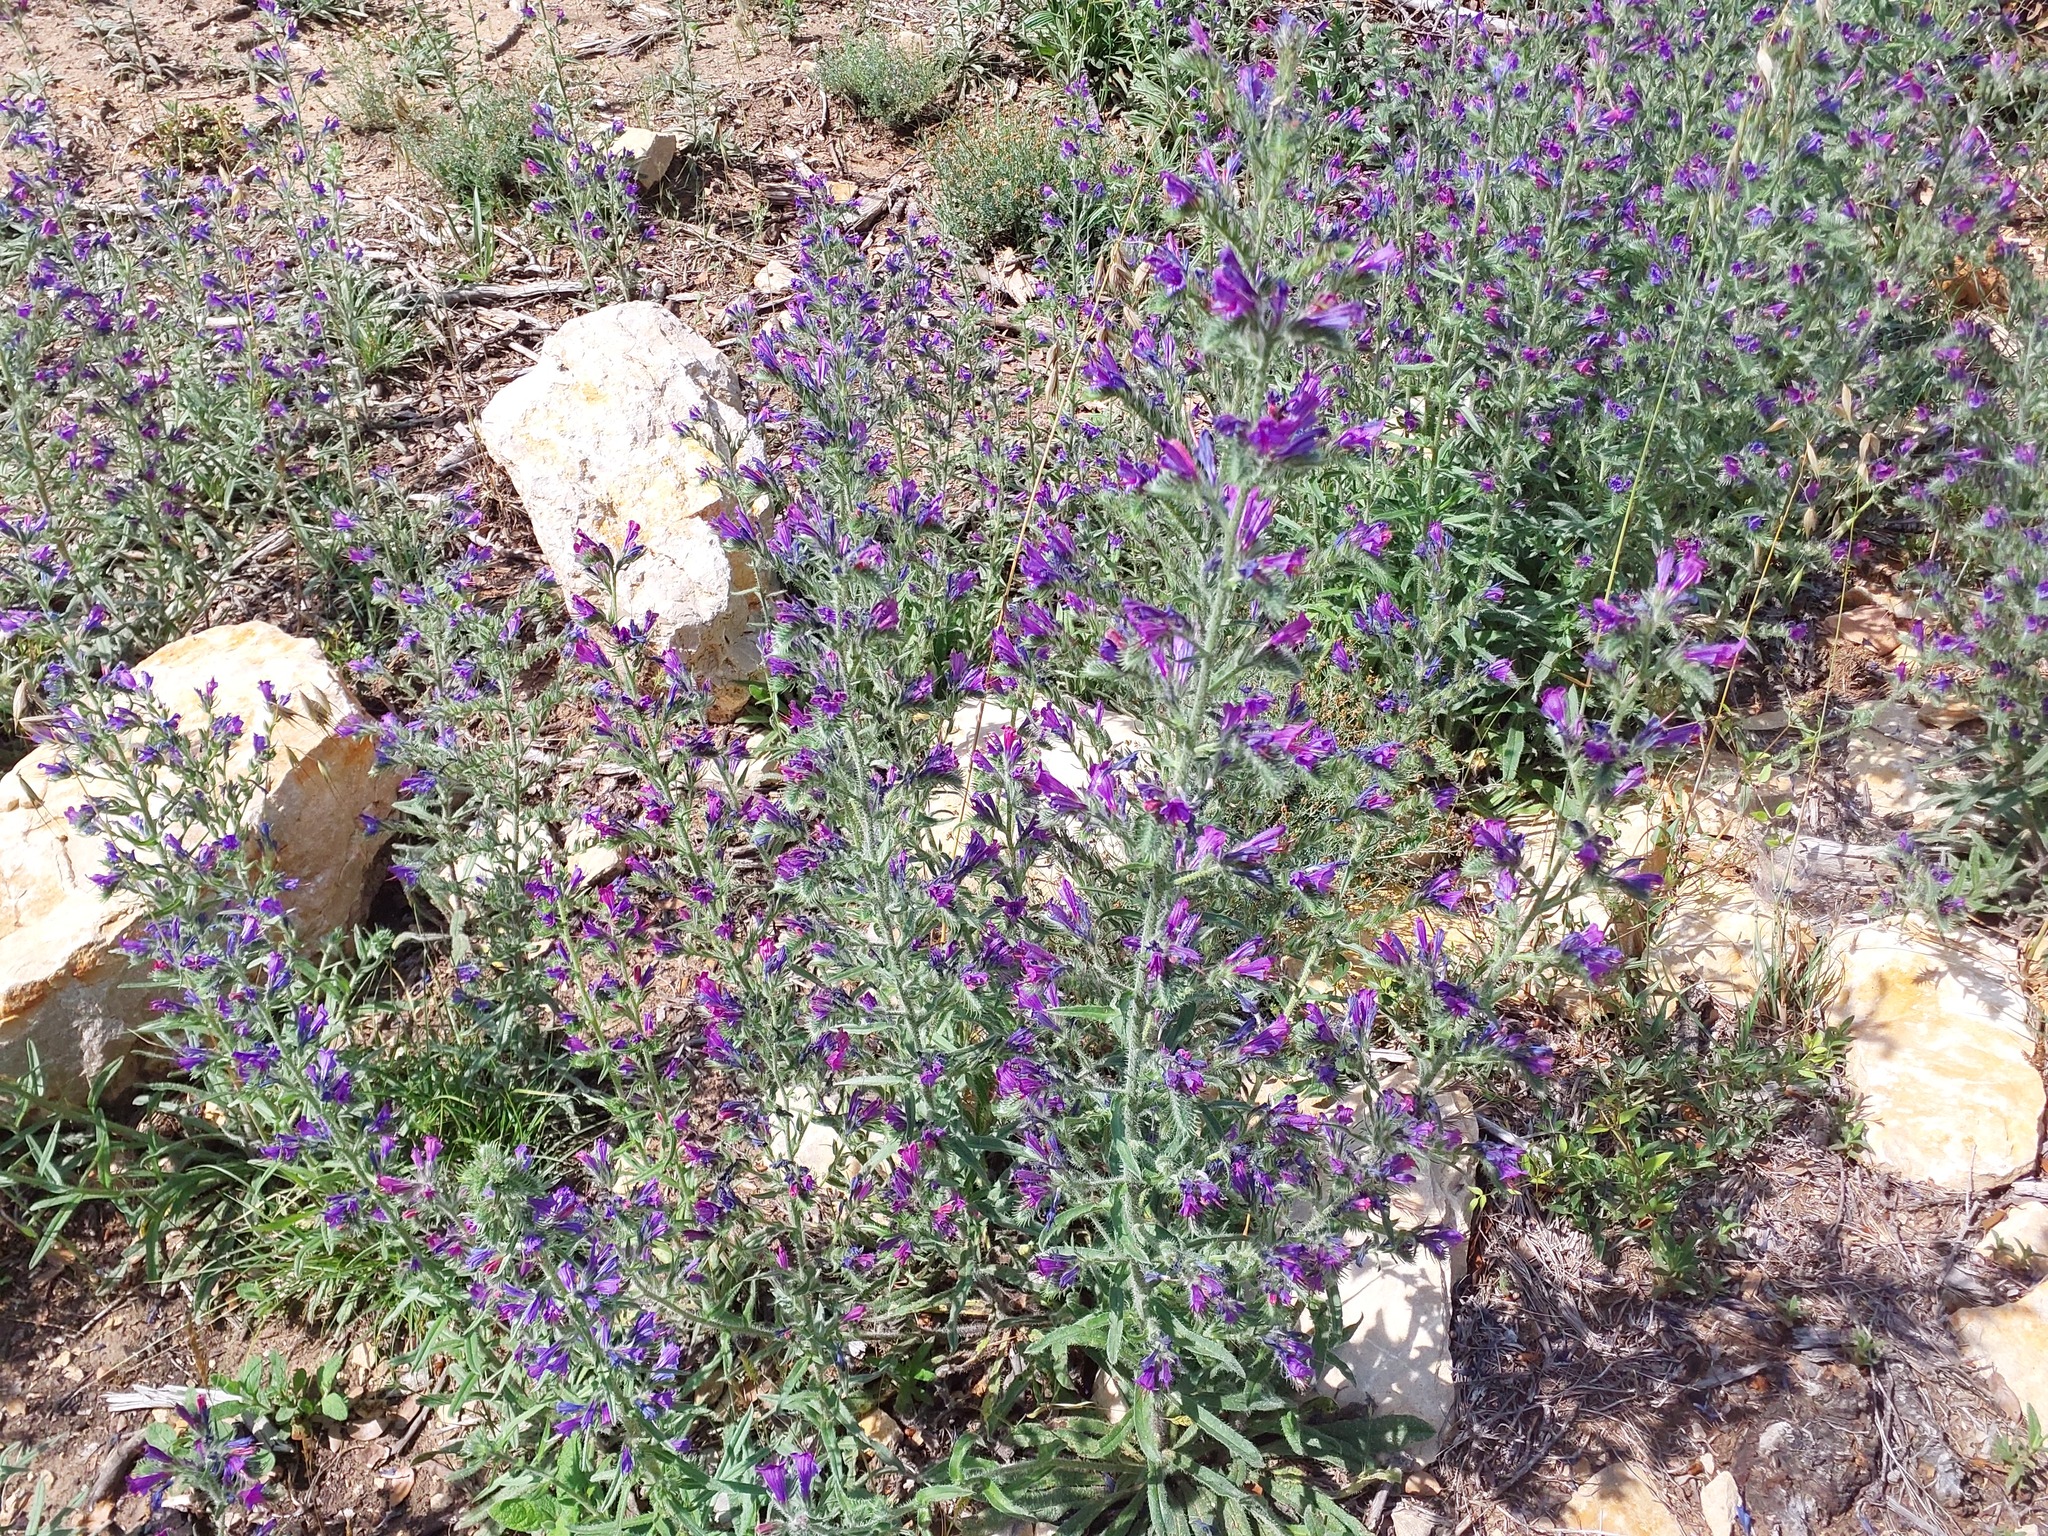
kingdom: Plantae
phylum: Tracheophyta
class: Magnoliopsida
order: Boraginales
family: Boraginaceae
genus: Echium
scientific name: Echium vulgare
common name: Common viper's bugloss
